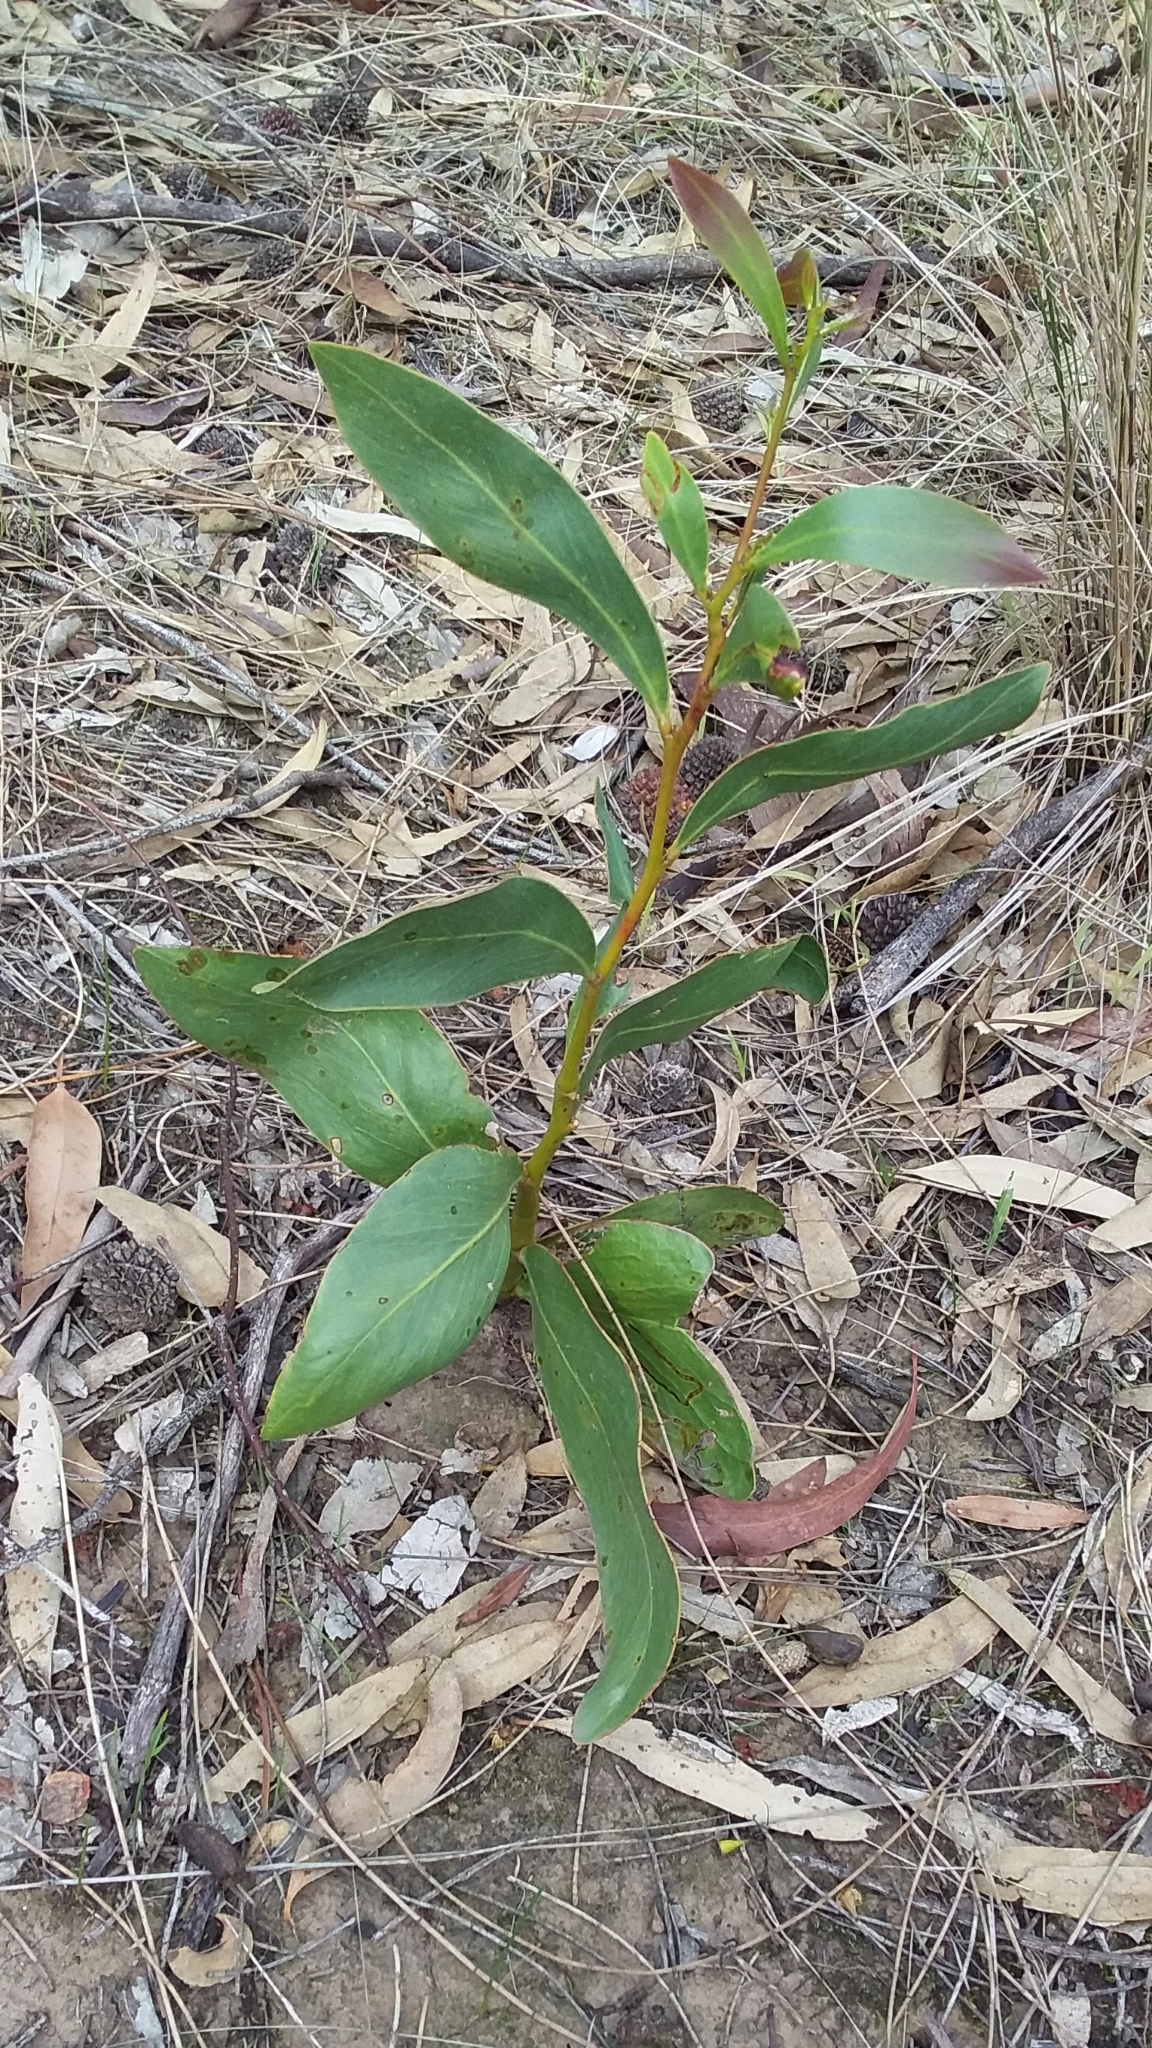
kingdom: Plantae
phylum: Tracheophyta
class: Magnoliopsida
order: Fabales
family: Fabaceae
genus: Acacia
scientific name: Acacia pycnantha
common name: Golden wattle
